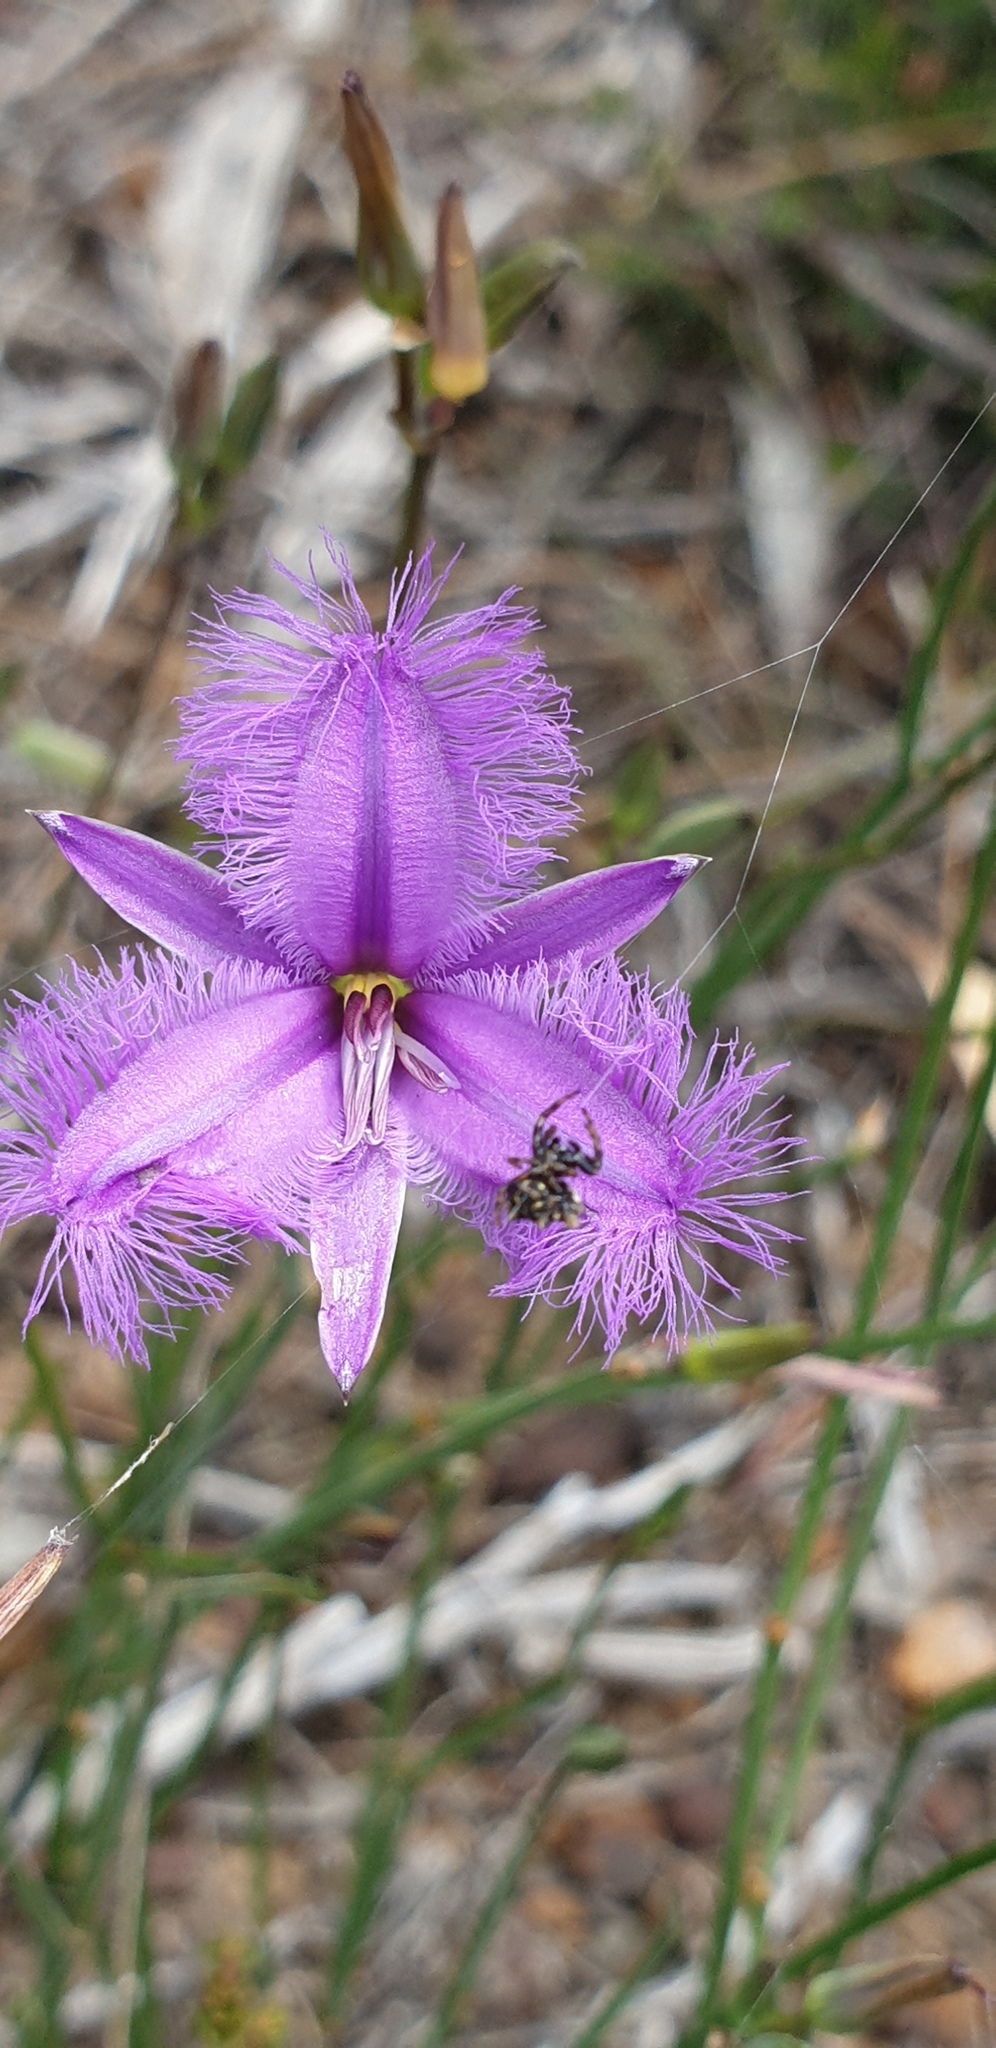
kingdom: Plantae
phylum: Tracheophyta
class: Liliopsida
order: Asparagales
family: Asparagaceae
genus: Thysanotus
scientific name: Thysanotus racemoides
